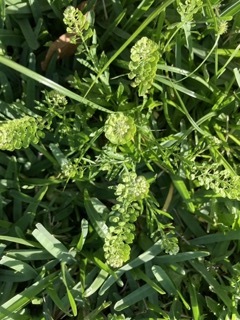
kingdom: Plantae
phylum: Tracheophyta
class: Magnoliopsida
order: Brassicales
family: Brassicaceae
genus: Lepidium
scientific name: Lepidium virginicum
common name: Least pepperwort
